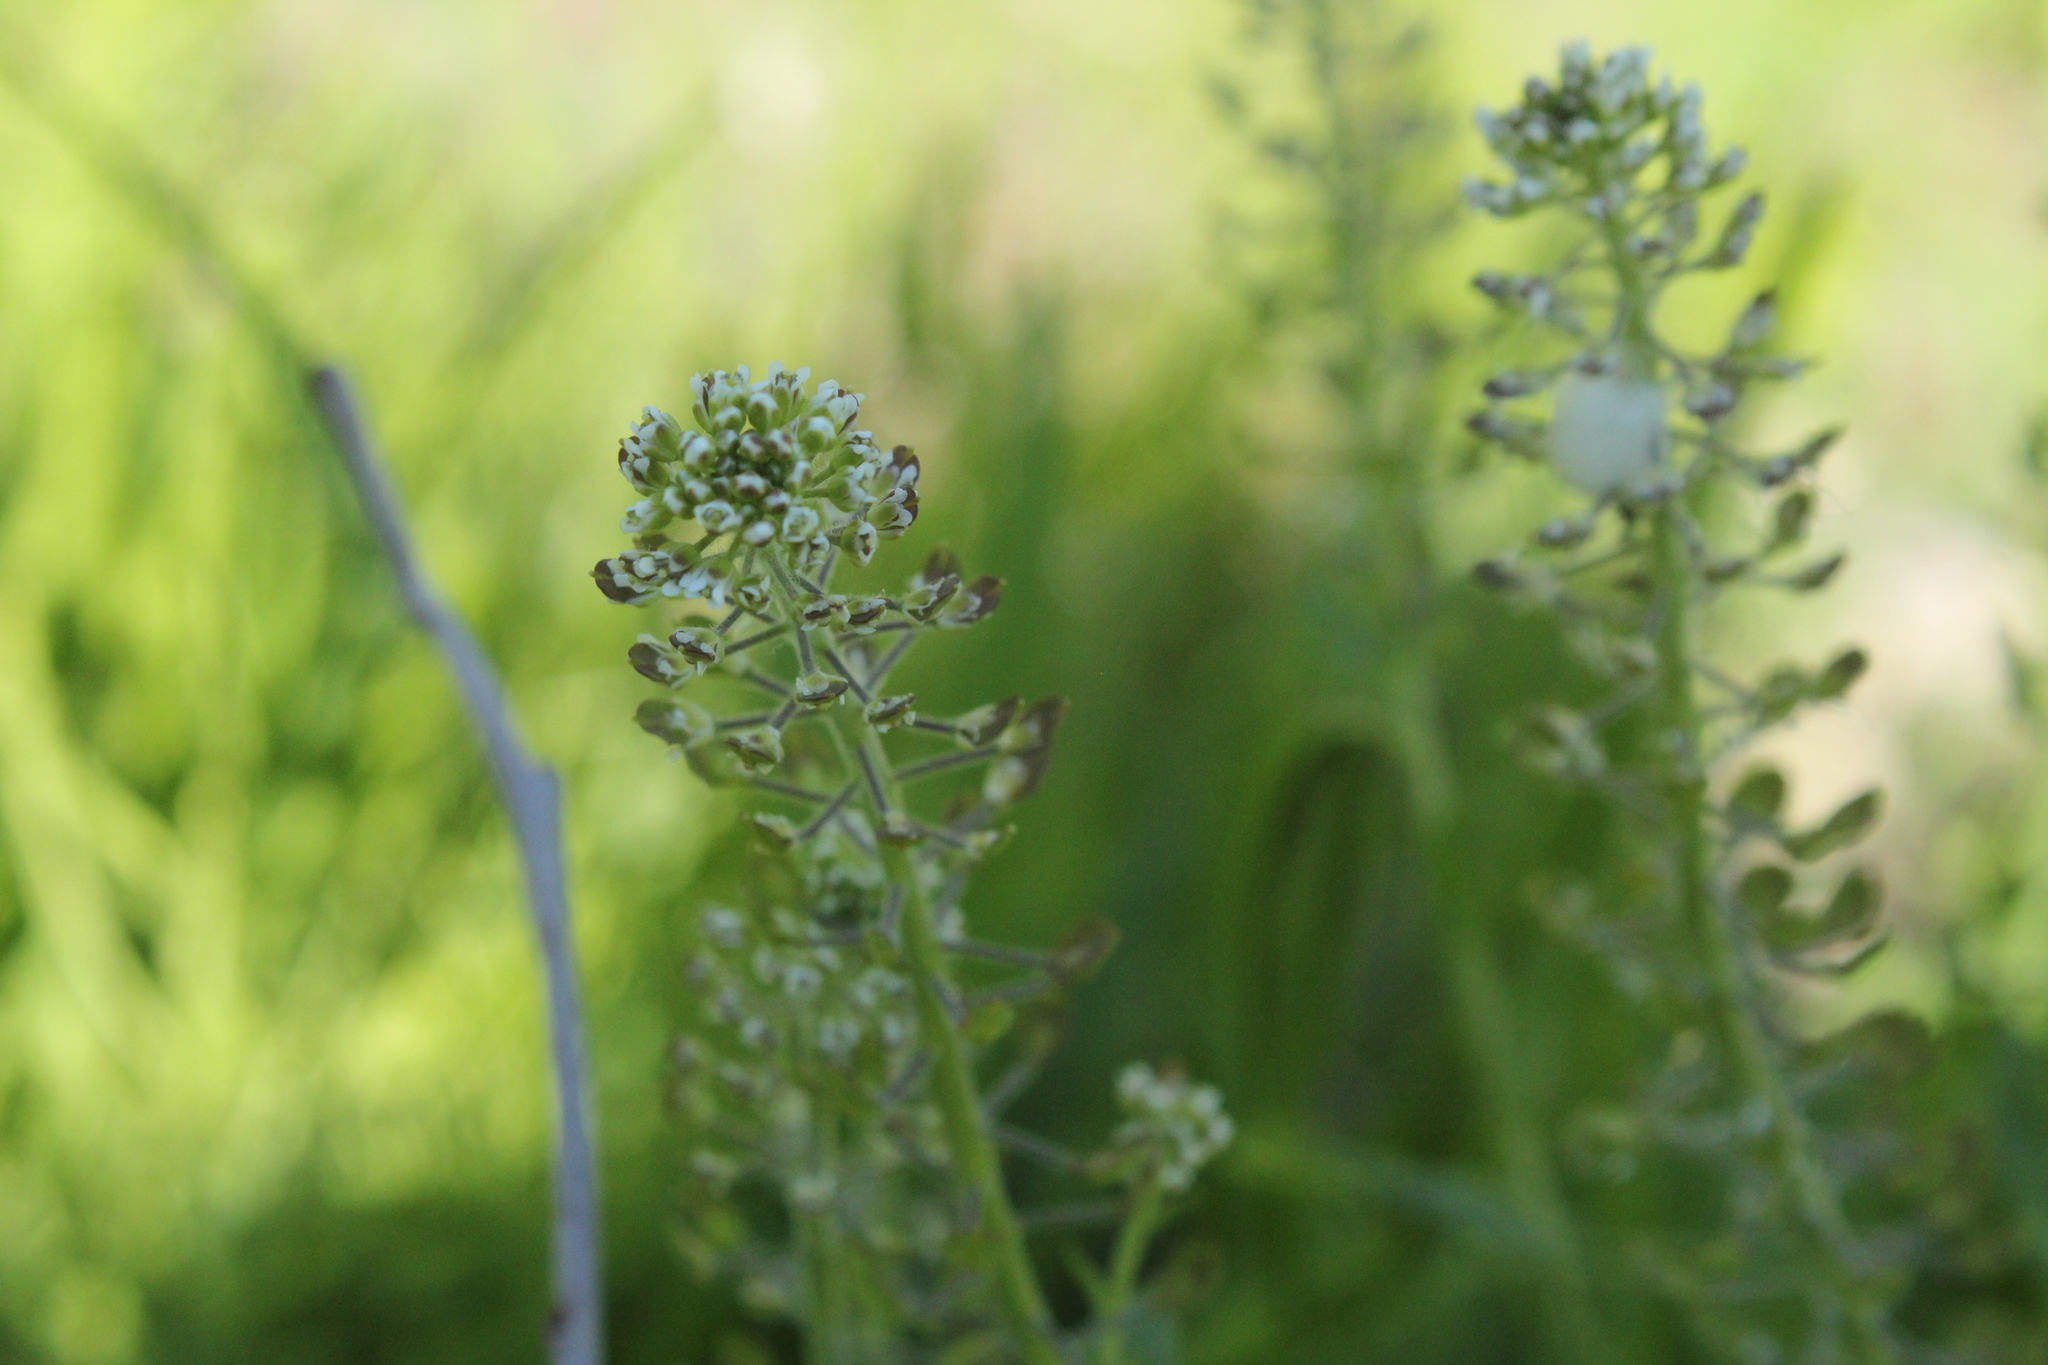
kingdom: Plantae
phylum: Tracheophyta
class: Magnoliopsida
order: Brassicales
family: Brassicaceae
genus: Lepidium
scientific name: Lepidium campestre
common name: Field pepperwort
